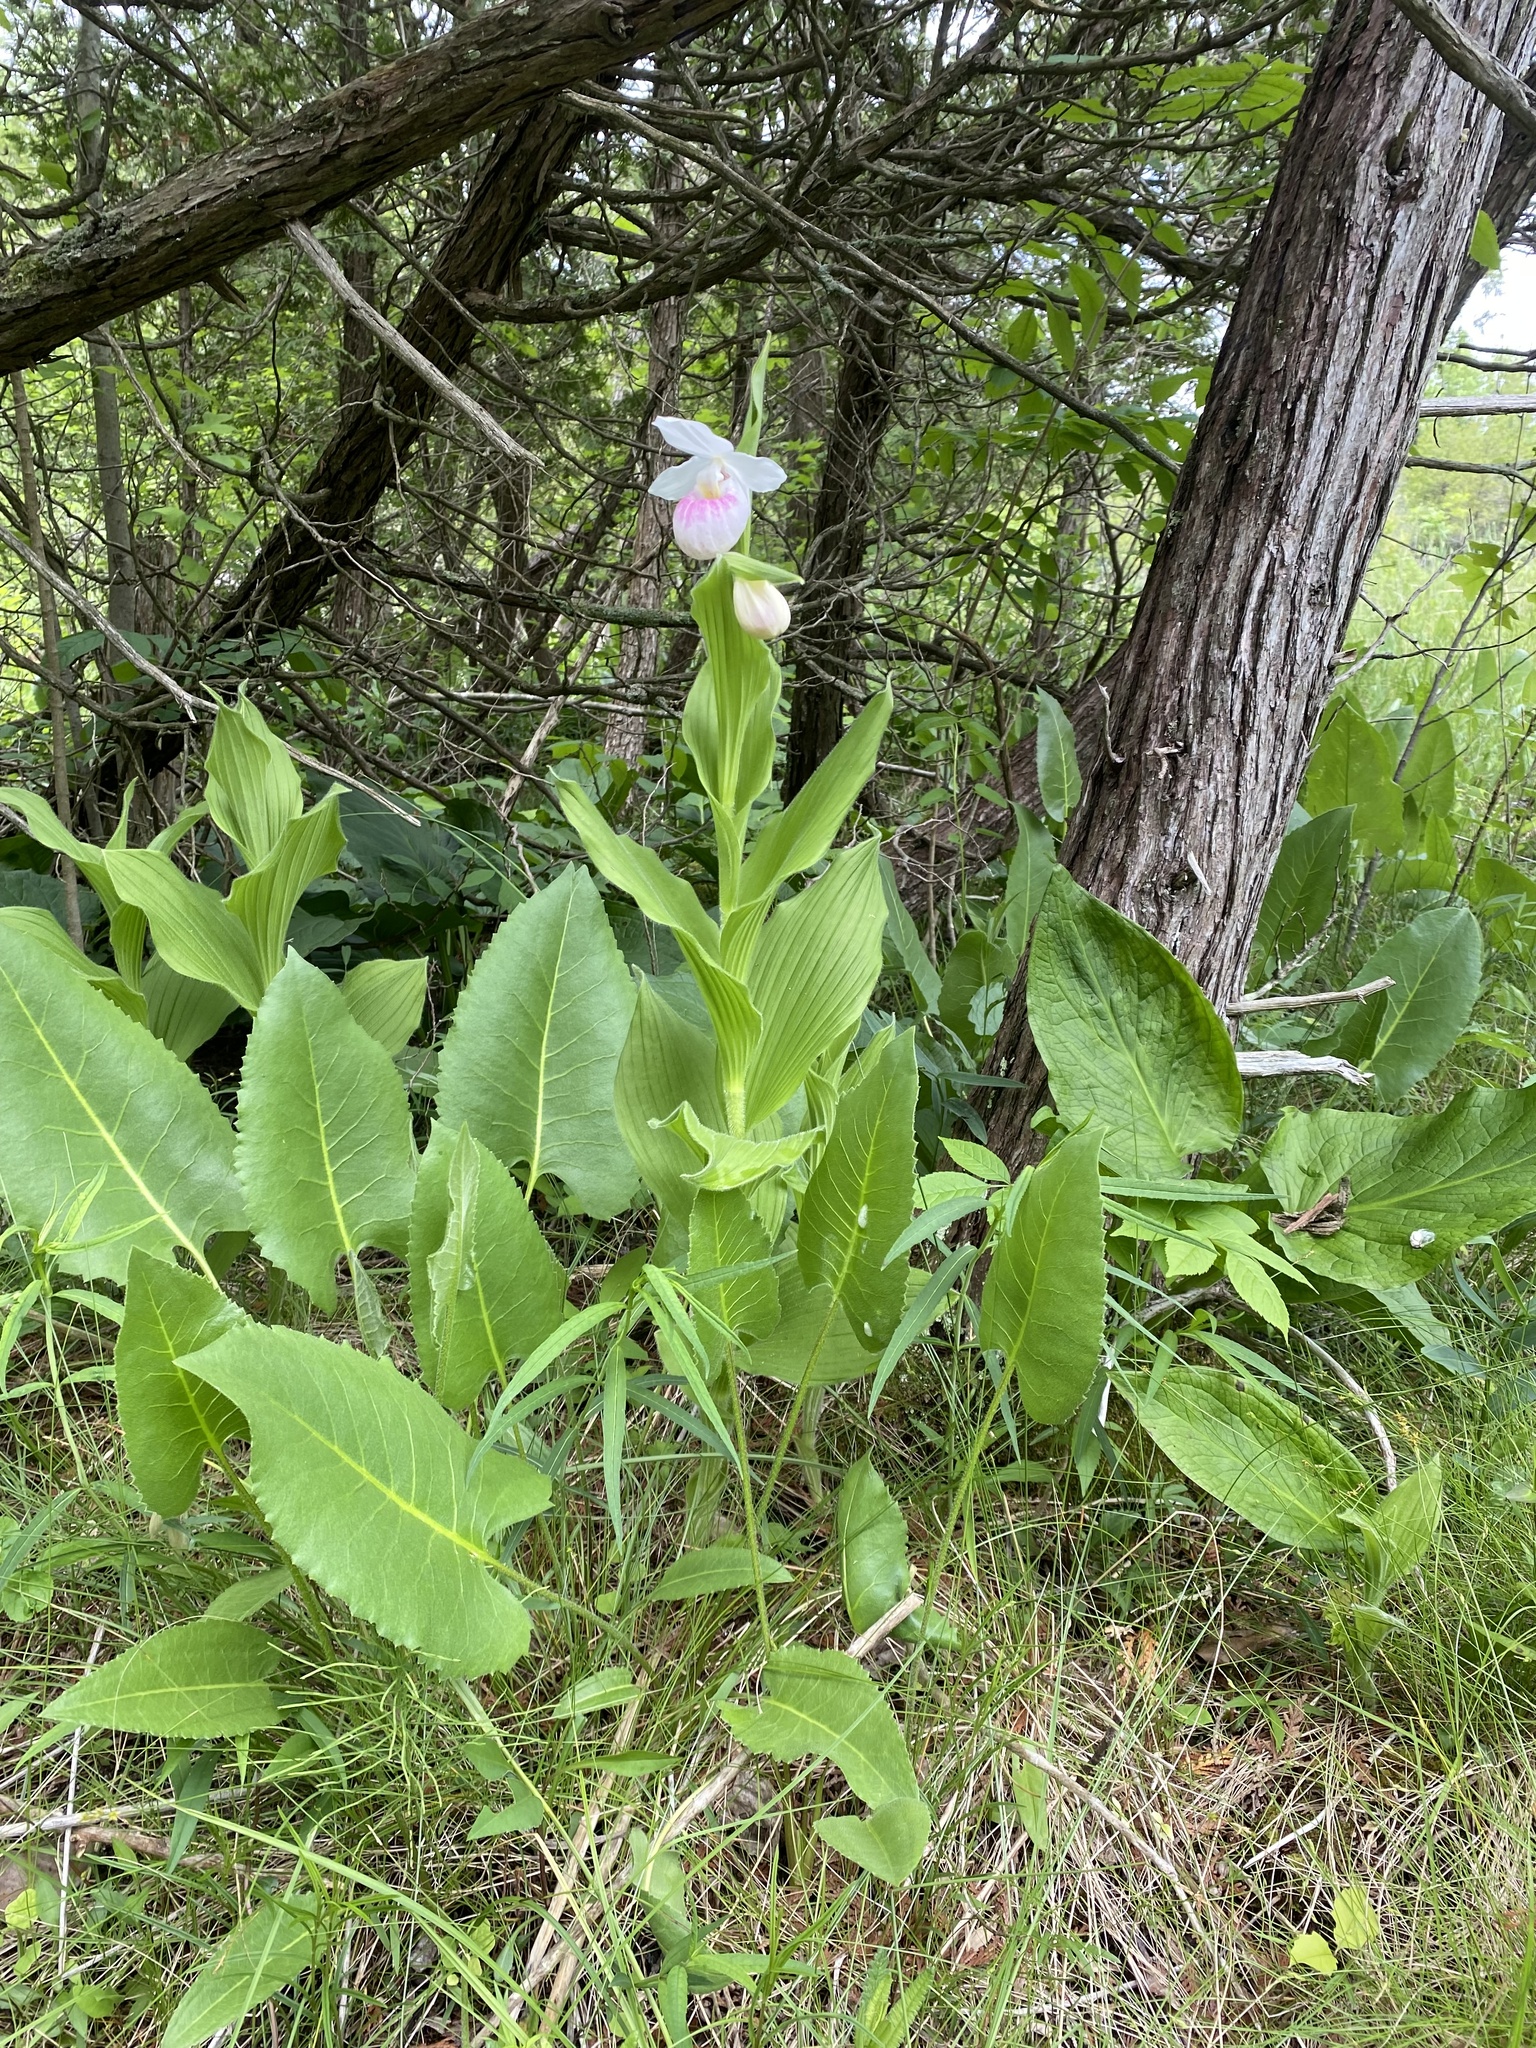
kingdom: Plantae
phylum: Tracheophyta
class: Liliopsida
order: Asparagales
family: Orchidaceae
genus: Cypripedium
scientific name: Cypripedium reginae
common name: Queen lady's-slipper
